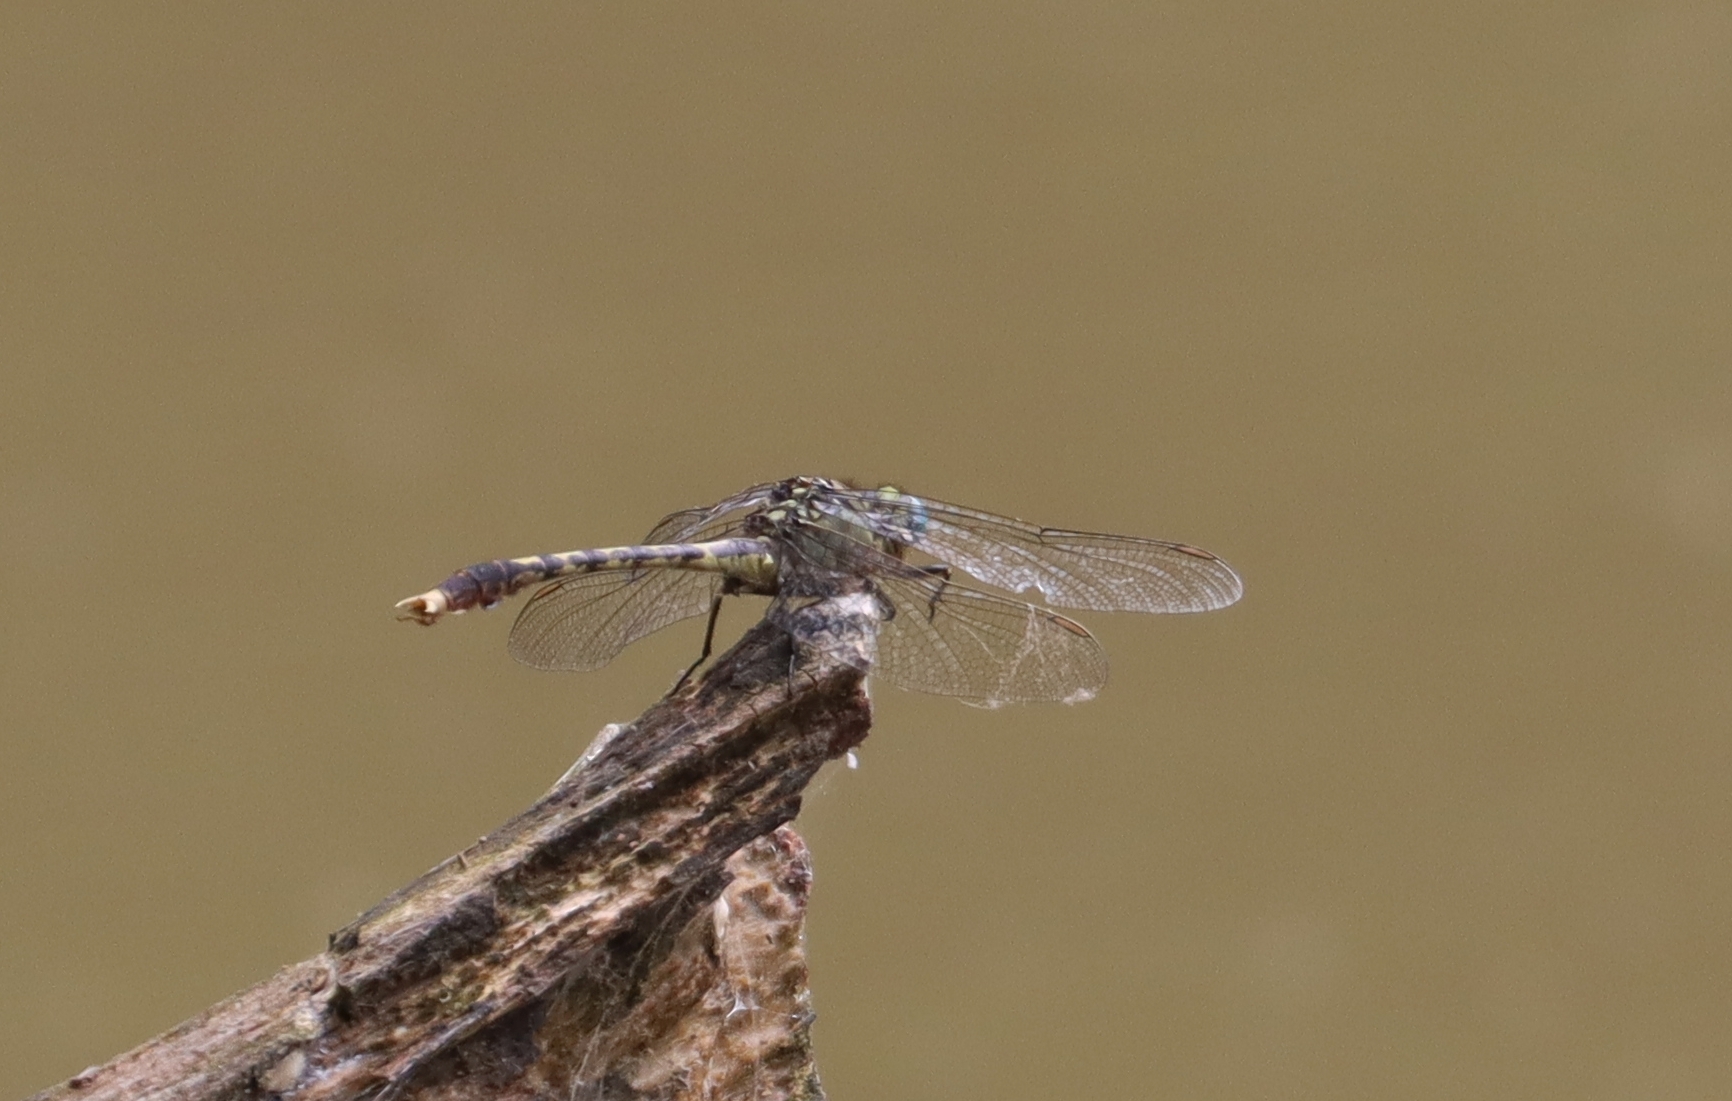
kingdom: Animalia
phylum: Arthropoda
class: Insecta
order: Odonata
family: Gomphidae
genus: Arigomphus
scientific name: Arigomphus villosipes
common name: Unicorn clubtail
